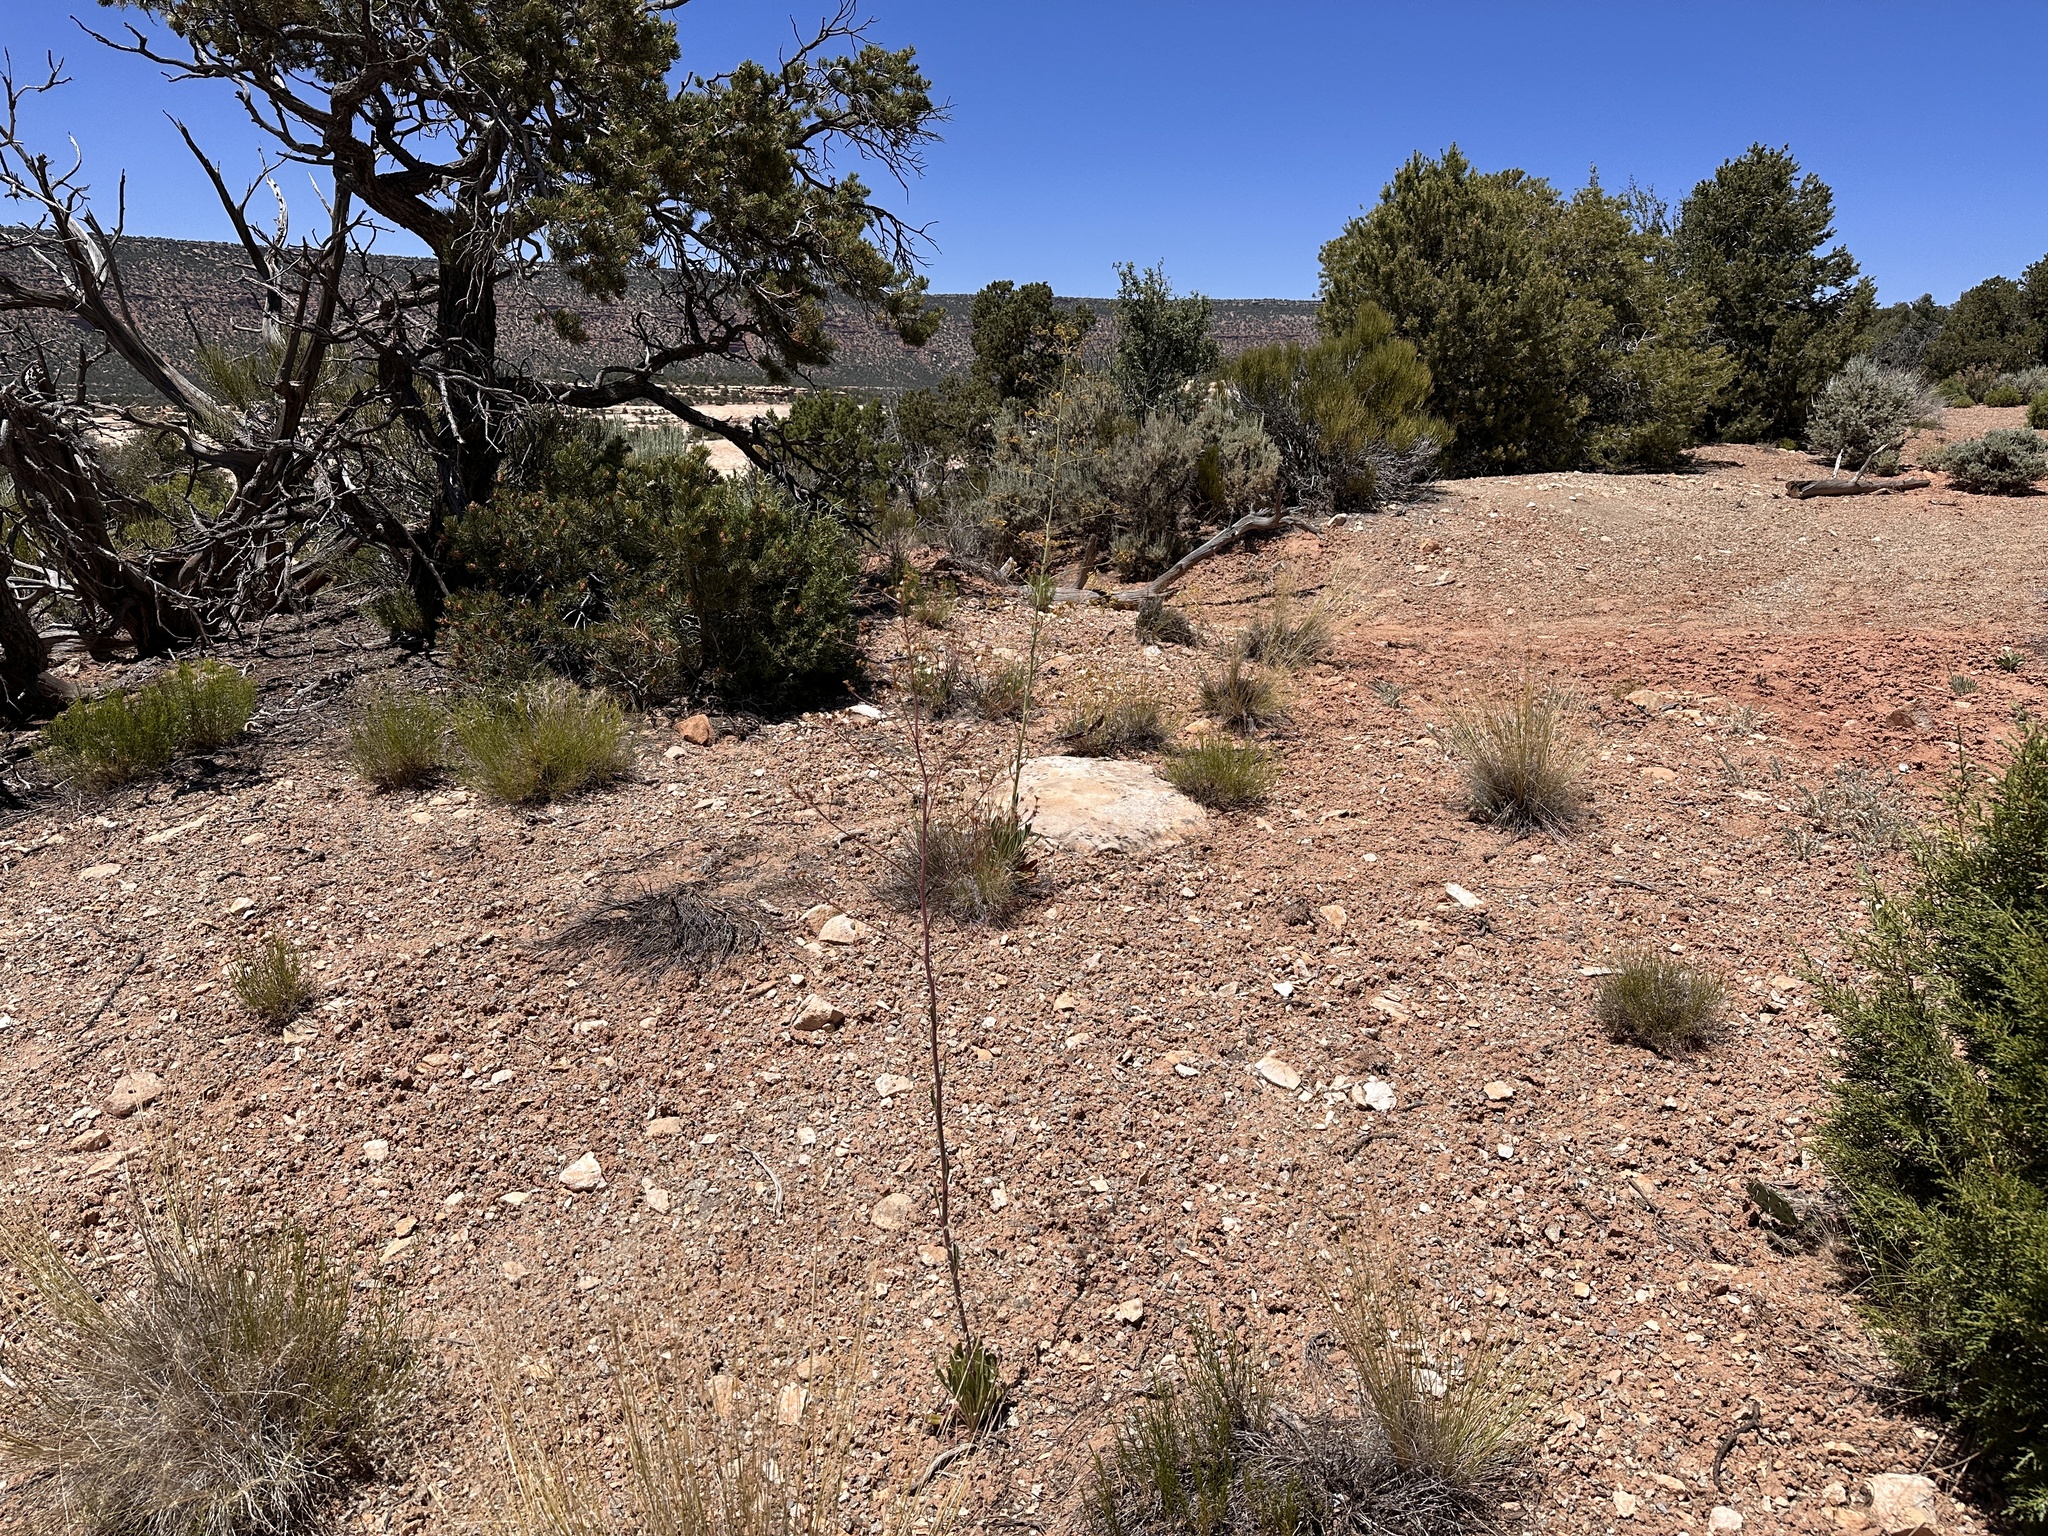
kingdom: Plantae
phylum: Tracheophyta
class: Magnoliopsida
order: Caryophyllales
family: Polygonaceae
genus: Eriogonum
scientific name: Eriogonum alatum
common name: Winged eriogonum
